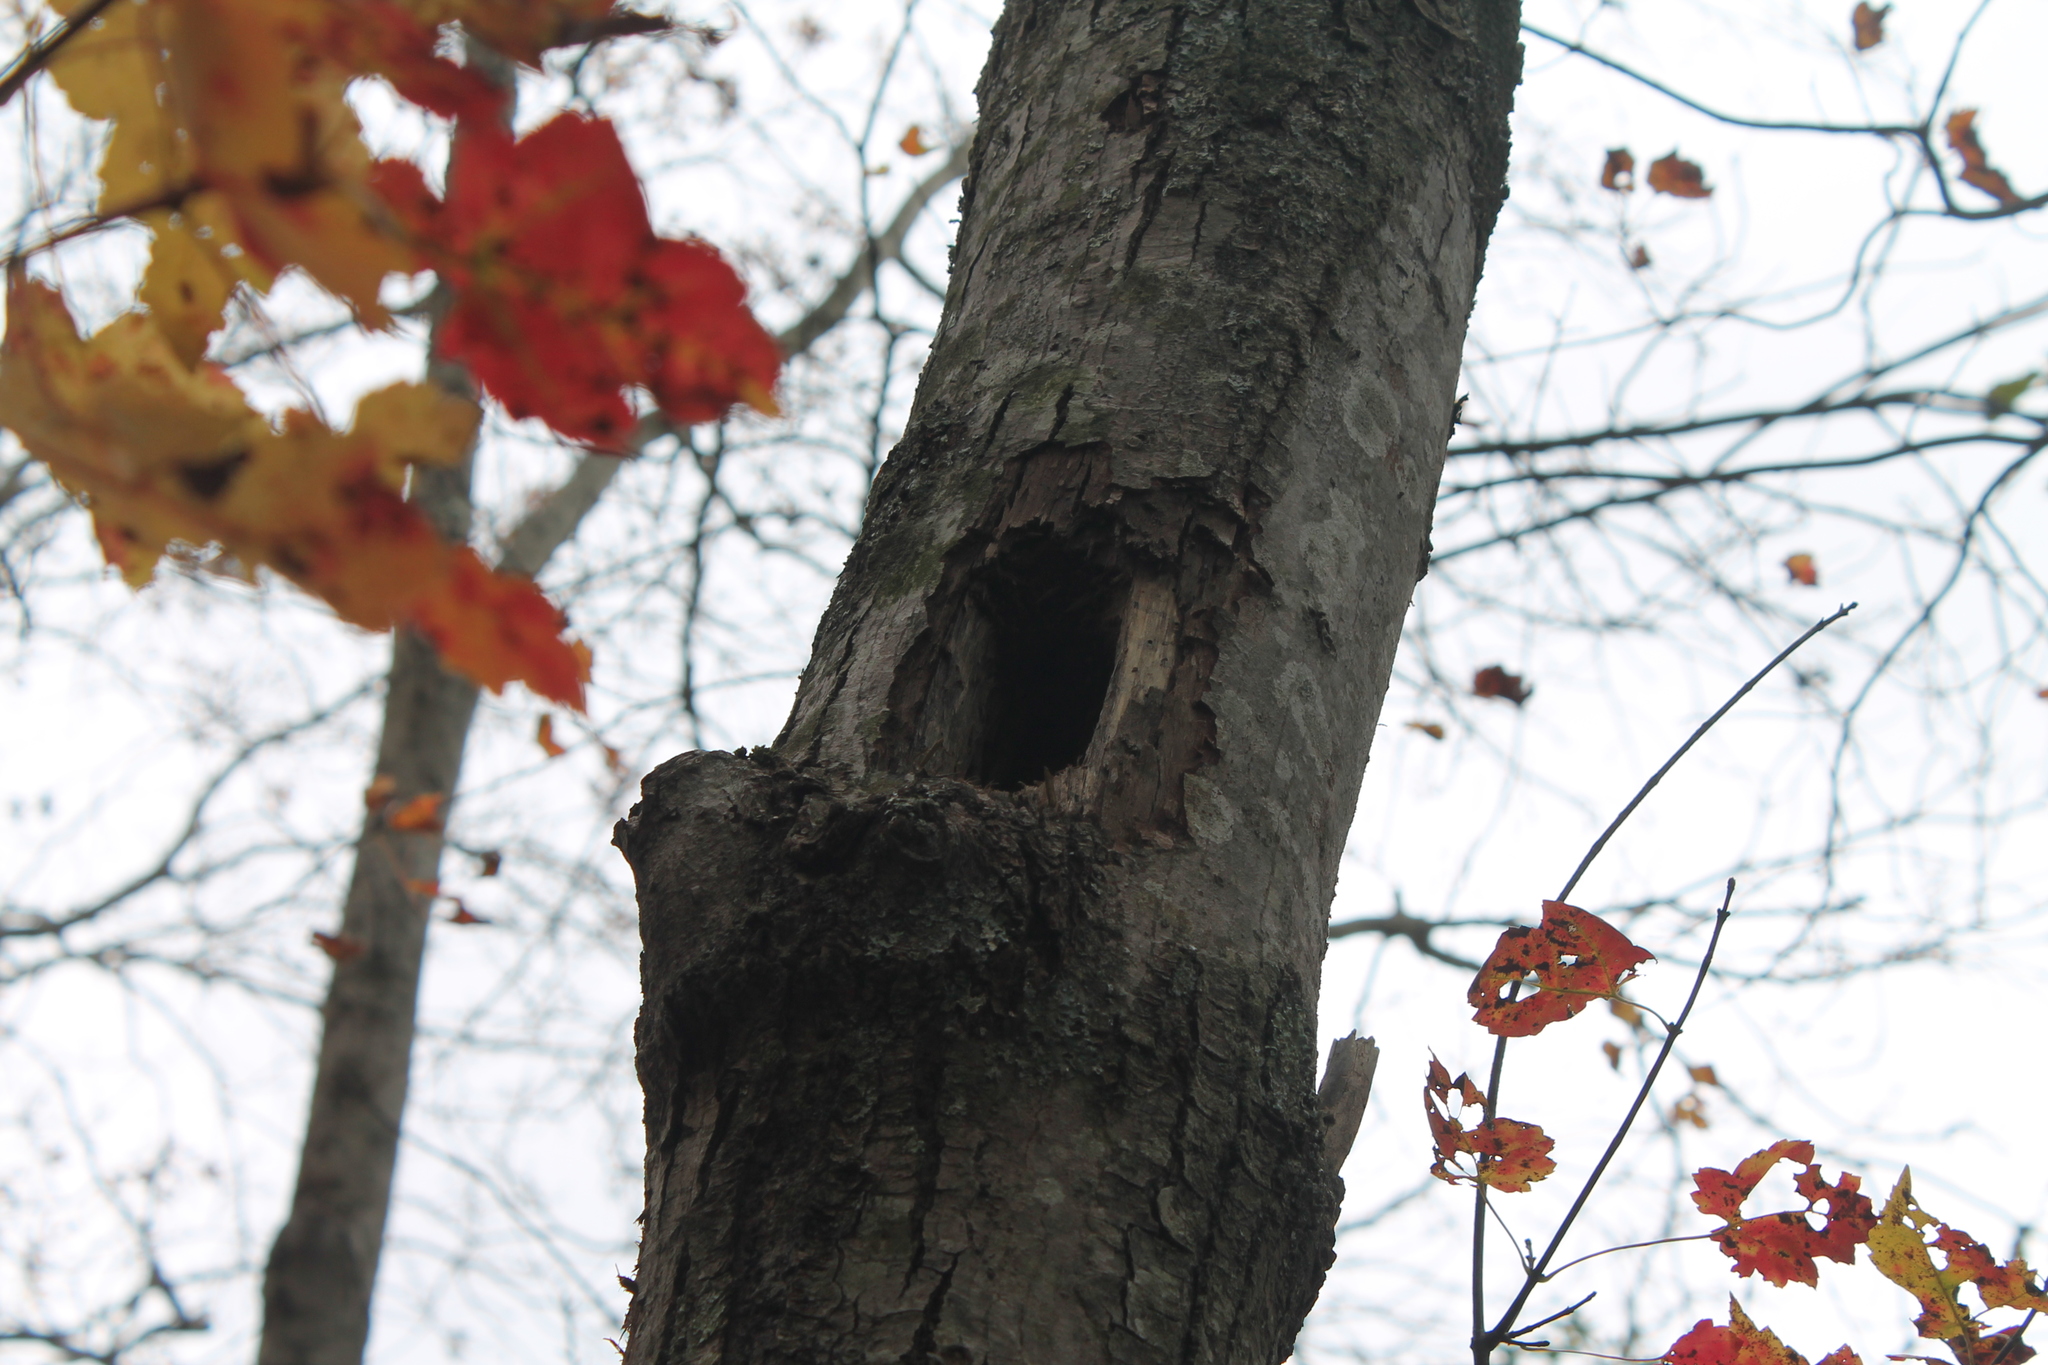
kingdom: Animalia
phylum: Chordata
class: Aves
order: Piciformes
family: Picidae
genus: Dryocopus
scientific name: Dryocopus pileatus
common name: Pileated woodpecker
